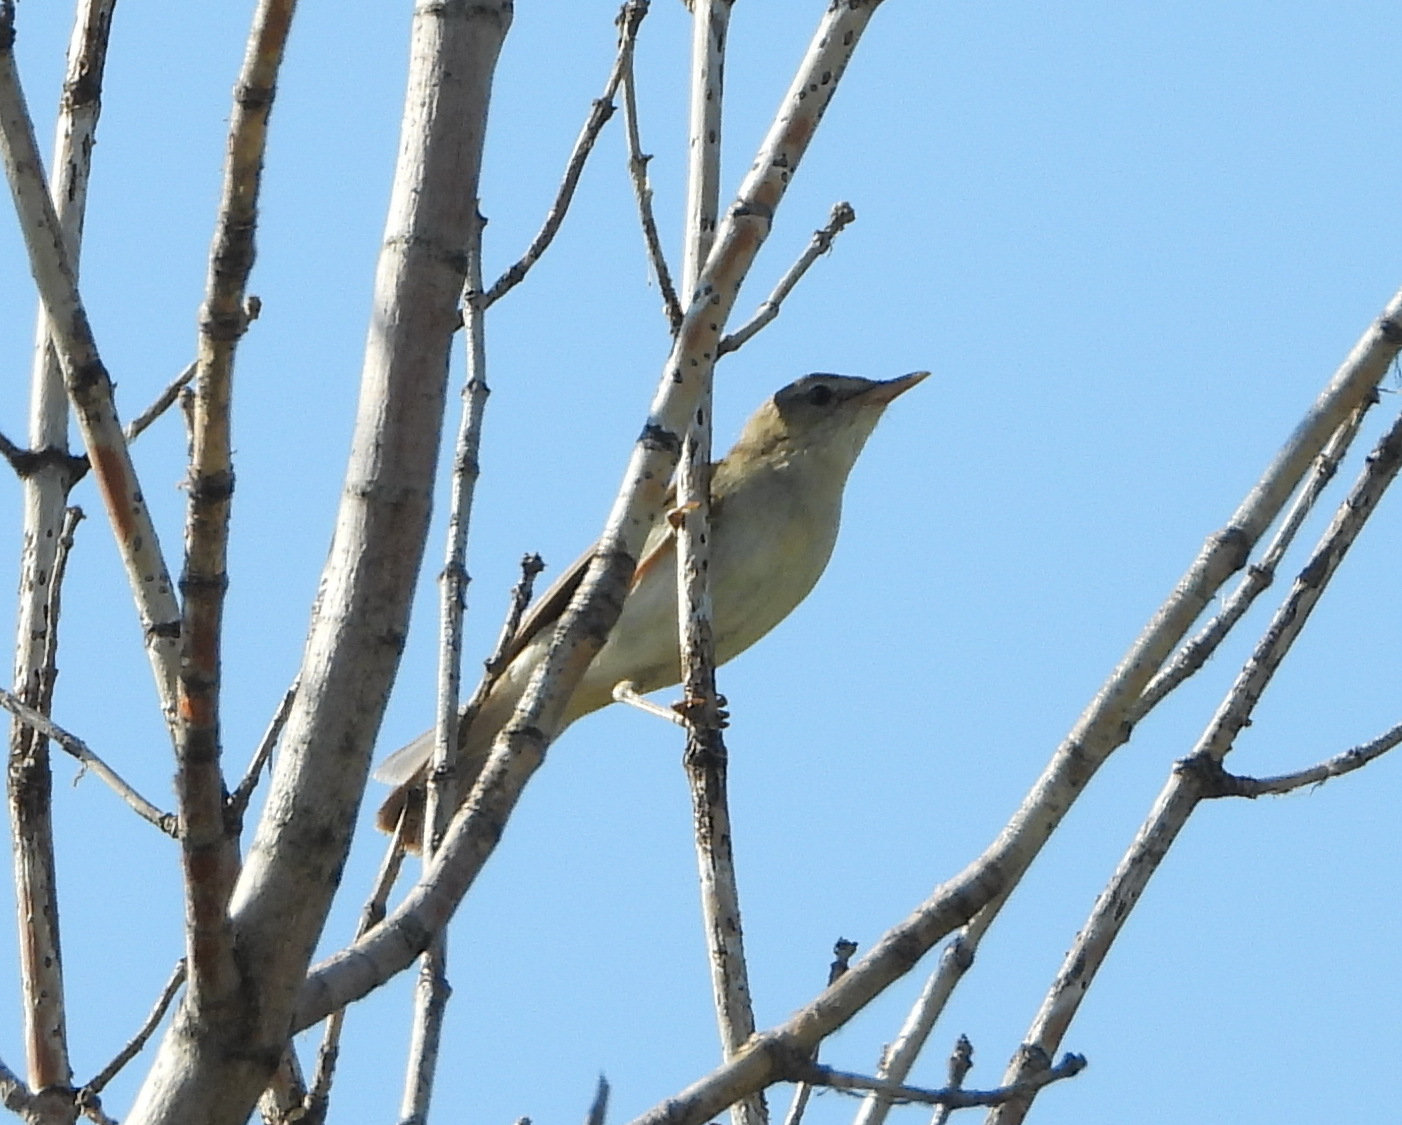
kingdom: Animalia
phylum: Chordata
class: Aves
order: Passeriformes
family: Acrocephalidae
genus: Acrocephalus
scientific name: Acrocephalus dumetorum
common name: Blyth's reed warbler
